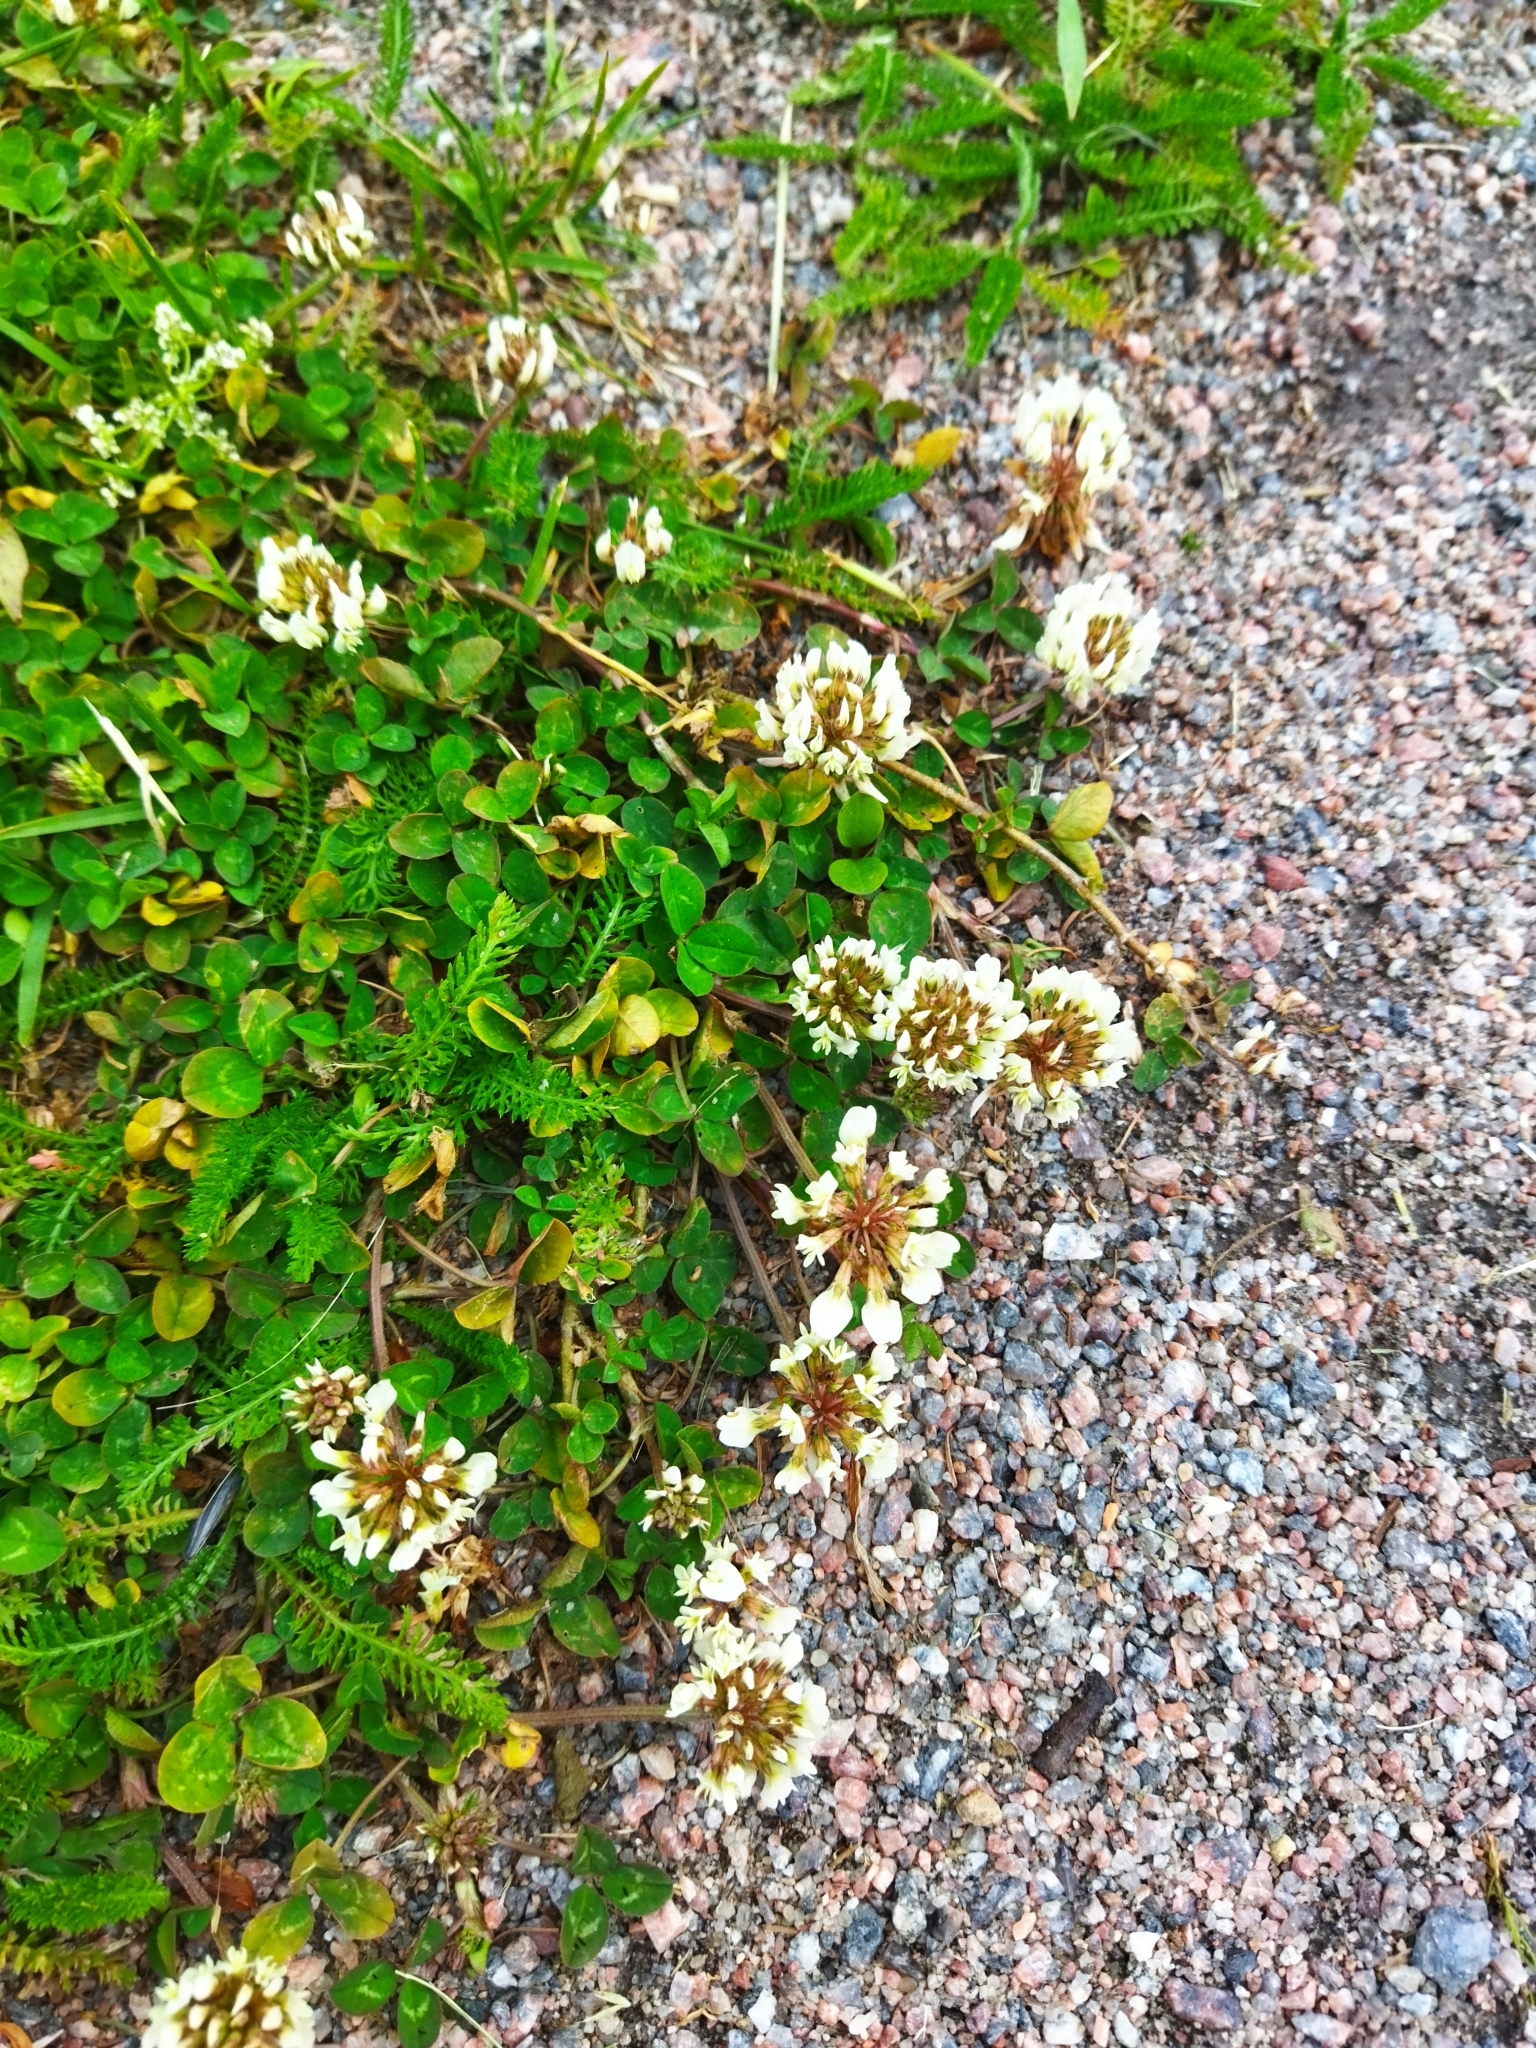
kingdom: Plantae
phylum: Tracheophyta
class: Magnoliopsida
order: Fabales
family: Fabaceae
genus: Trifolium
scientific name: Trifolium repens
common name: White clover
